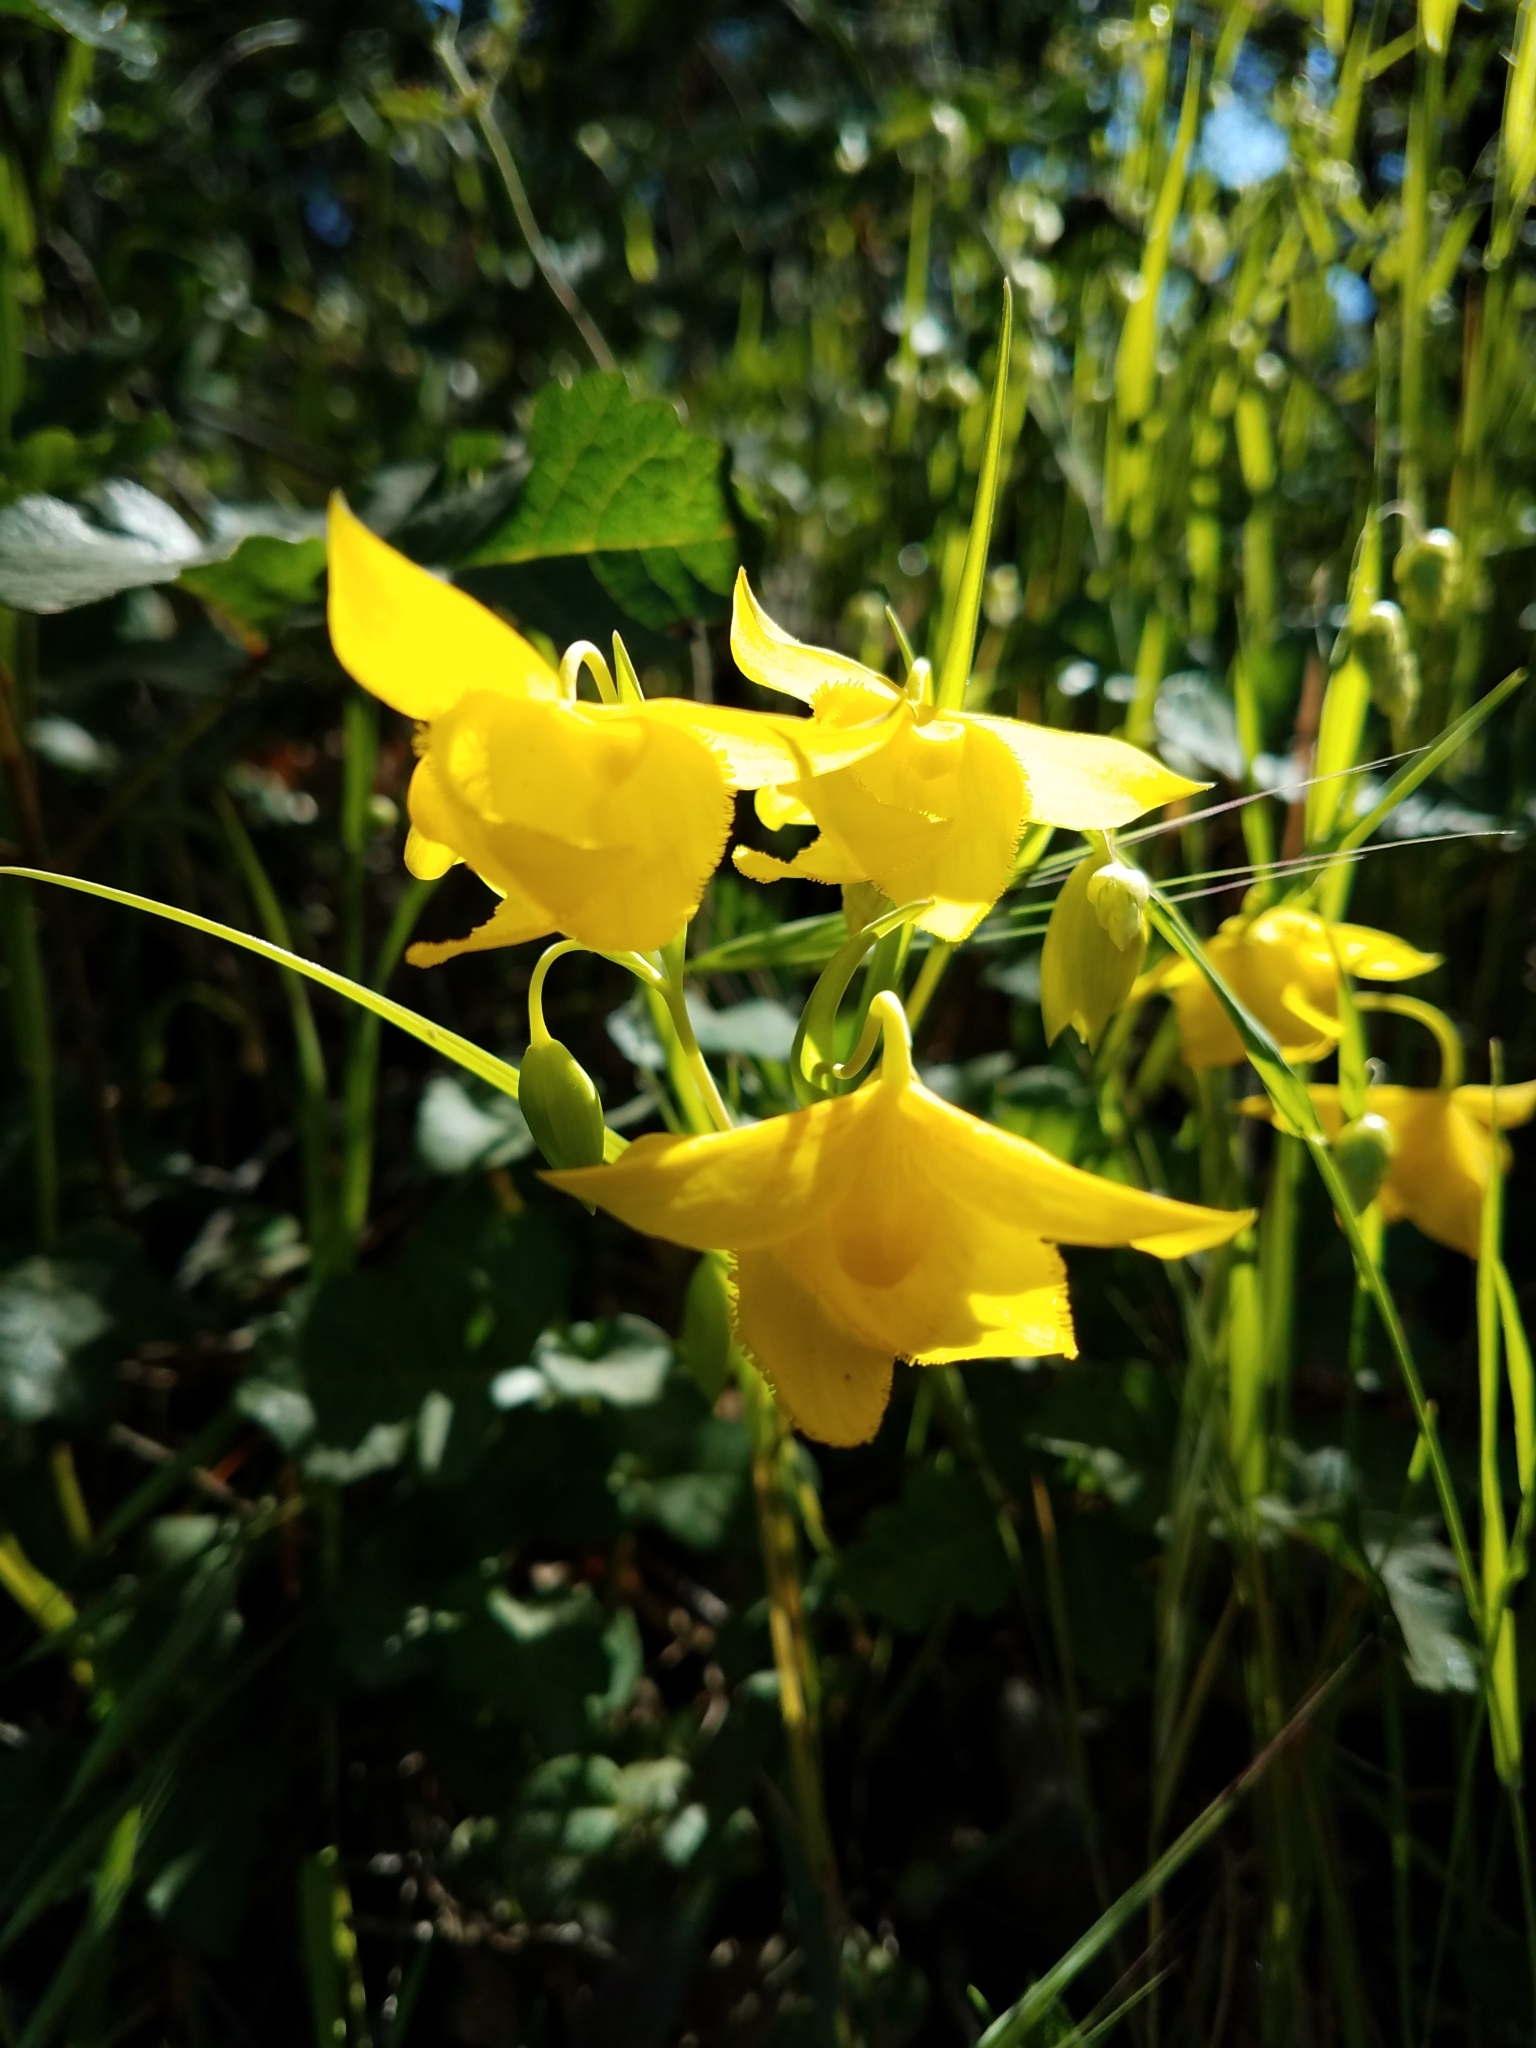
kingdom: Plantae
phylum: Tracheophyta
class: Liliopsida
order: Liliales
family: Liliaceae
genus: Calochortus
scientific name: Calochortus amabilis
